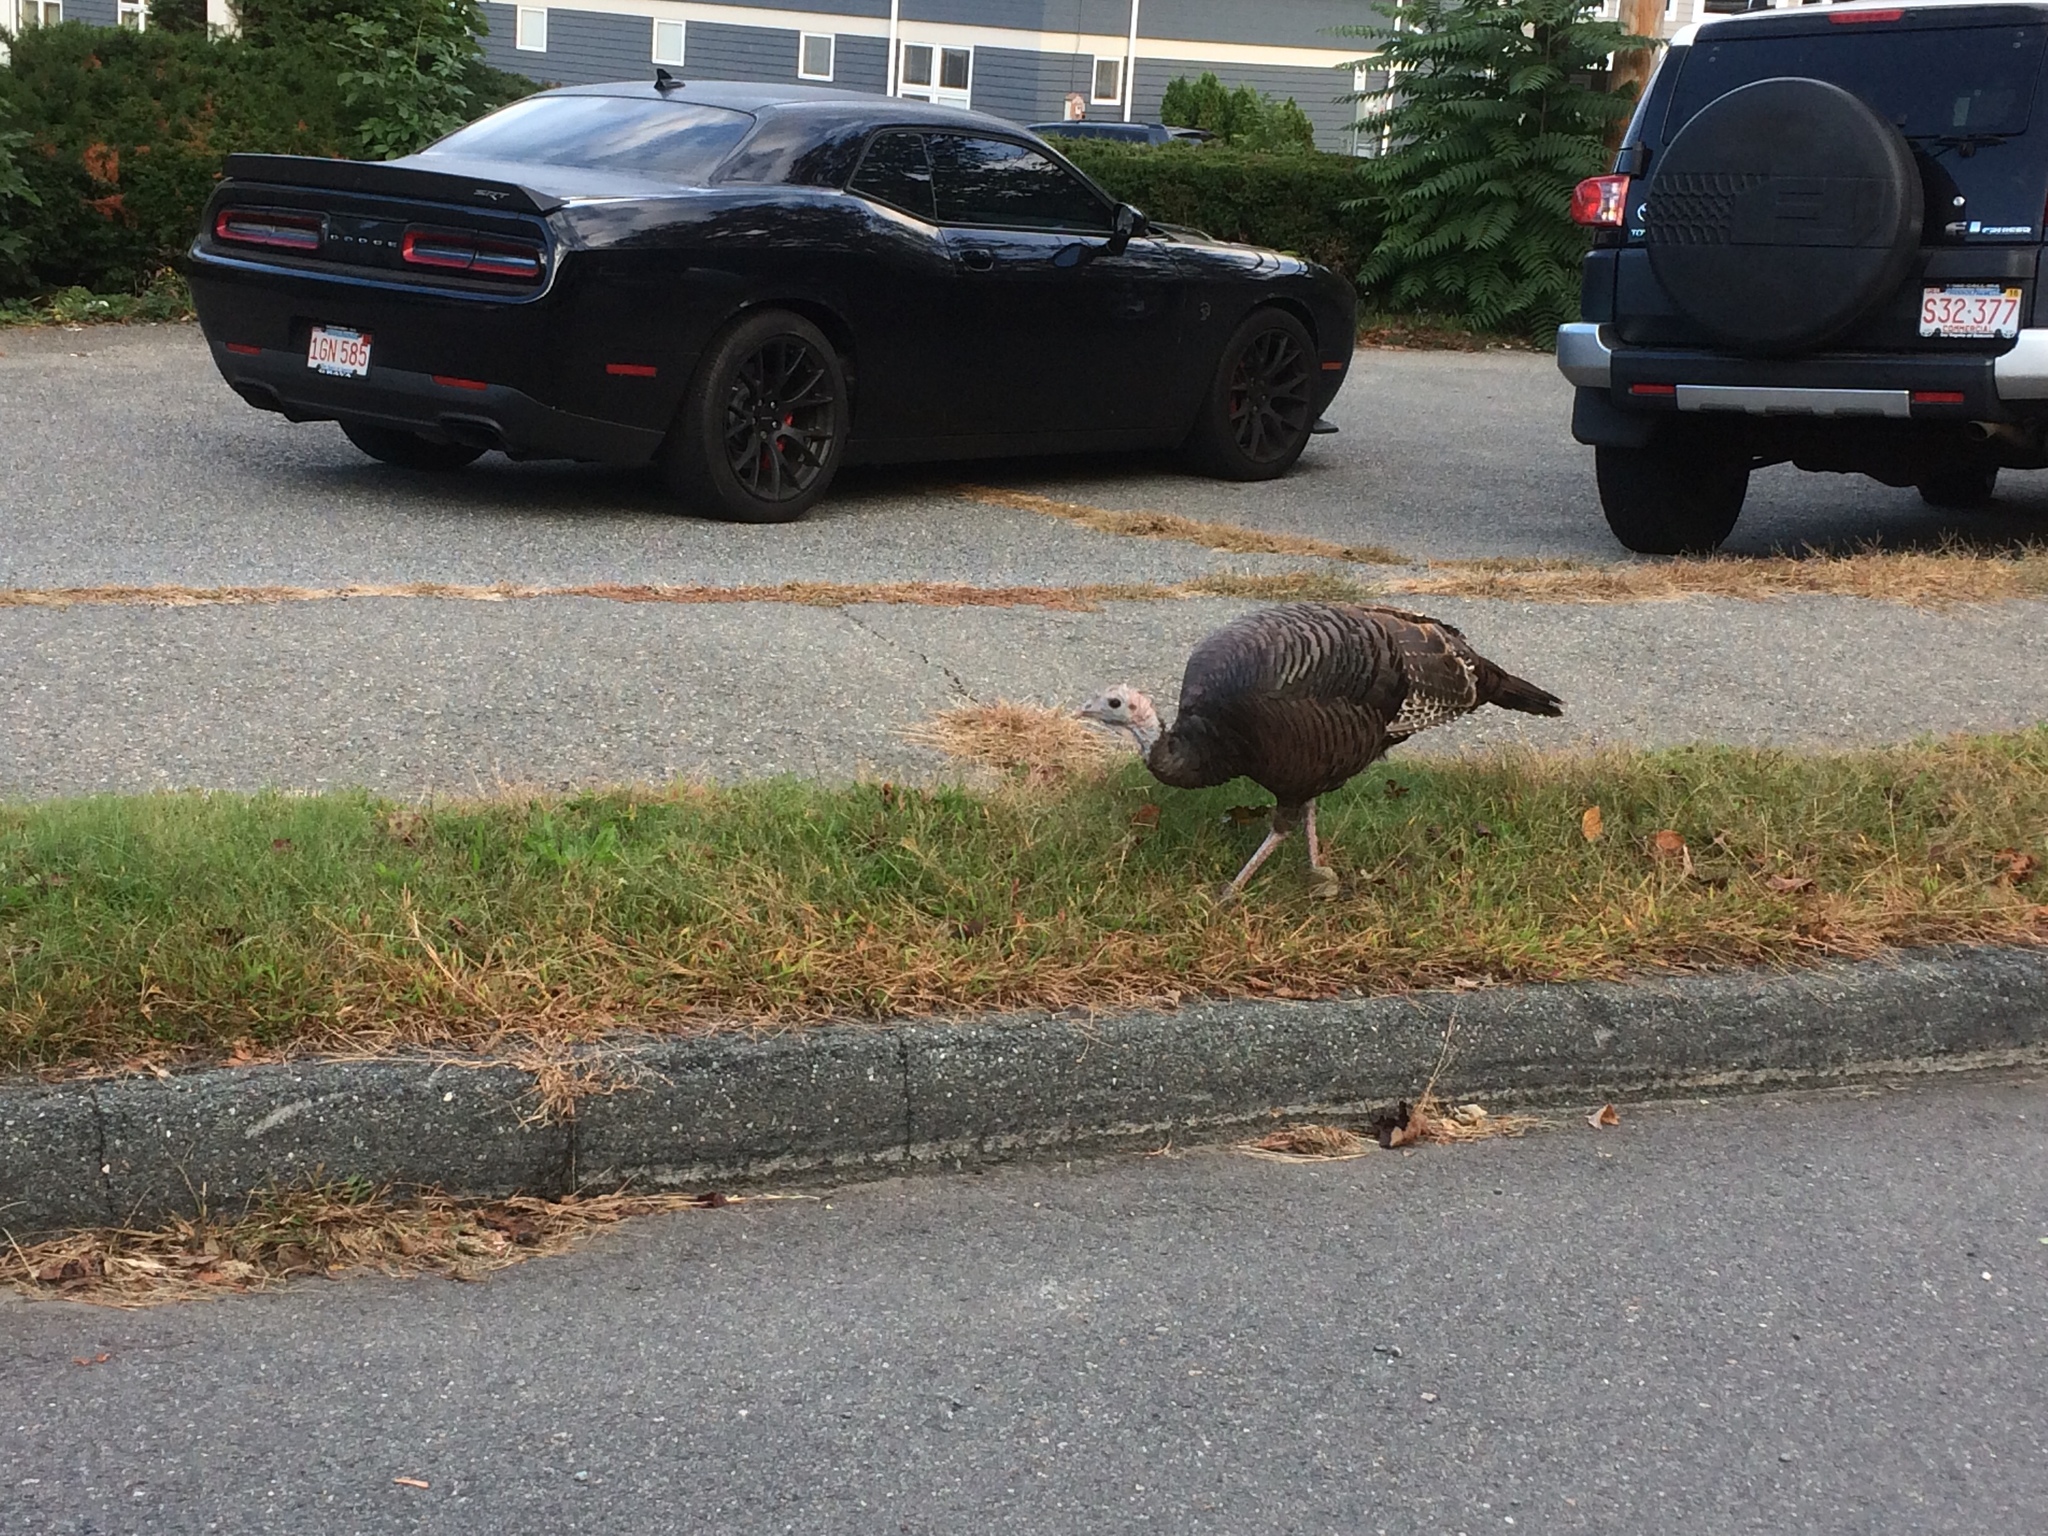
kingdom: Animalia
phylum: Chordata
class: Aves
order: Galliformes
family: Phasianidae
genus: Meleagris
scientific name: Meleagris gallopavo
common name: Wild turkey
